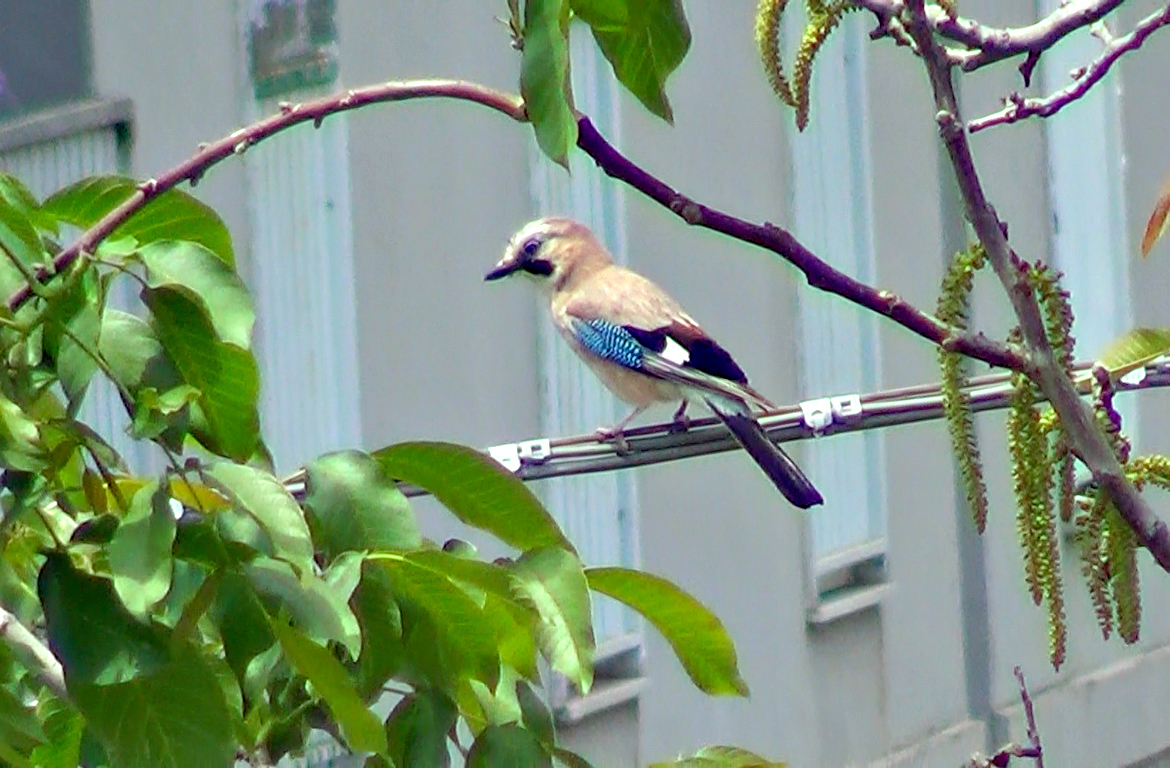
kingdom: Animalia
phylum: Chordata
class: Aves
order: Passeriformes
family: Corvidae
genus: Garrulus
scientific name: Garrulus glandarius
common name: Eurasian jay
